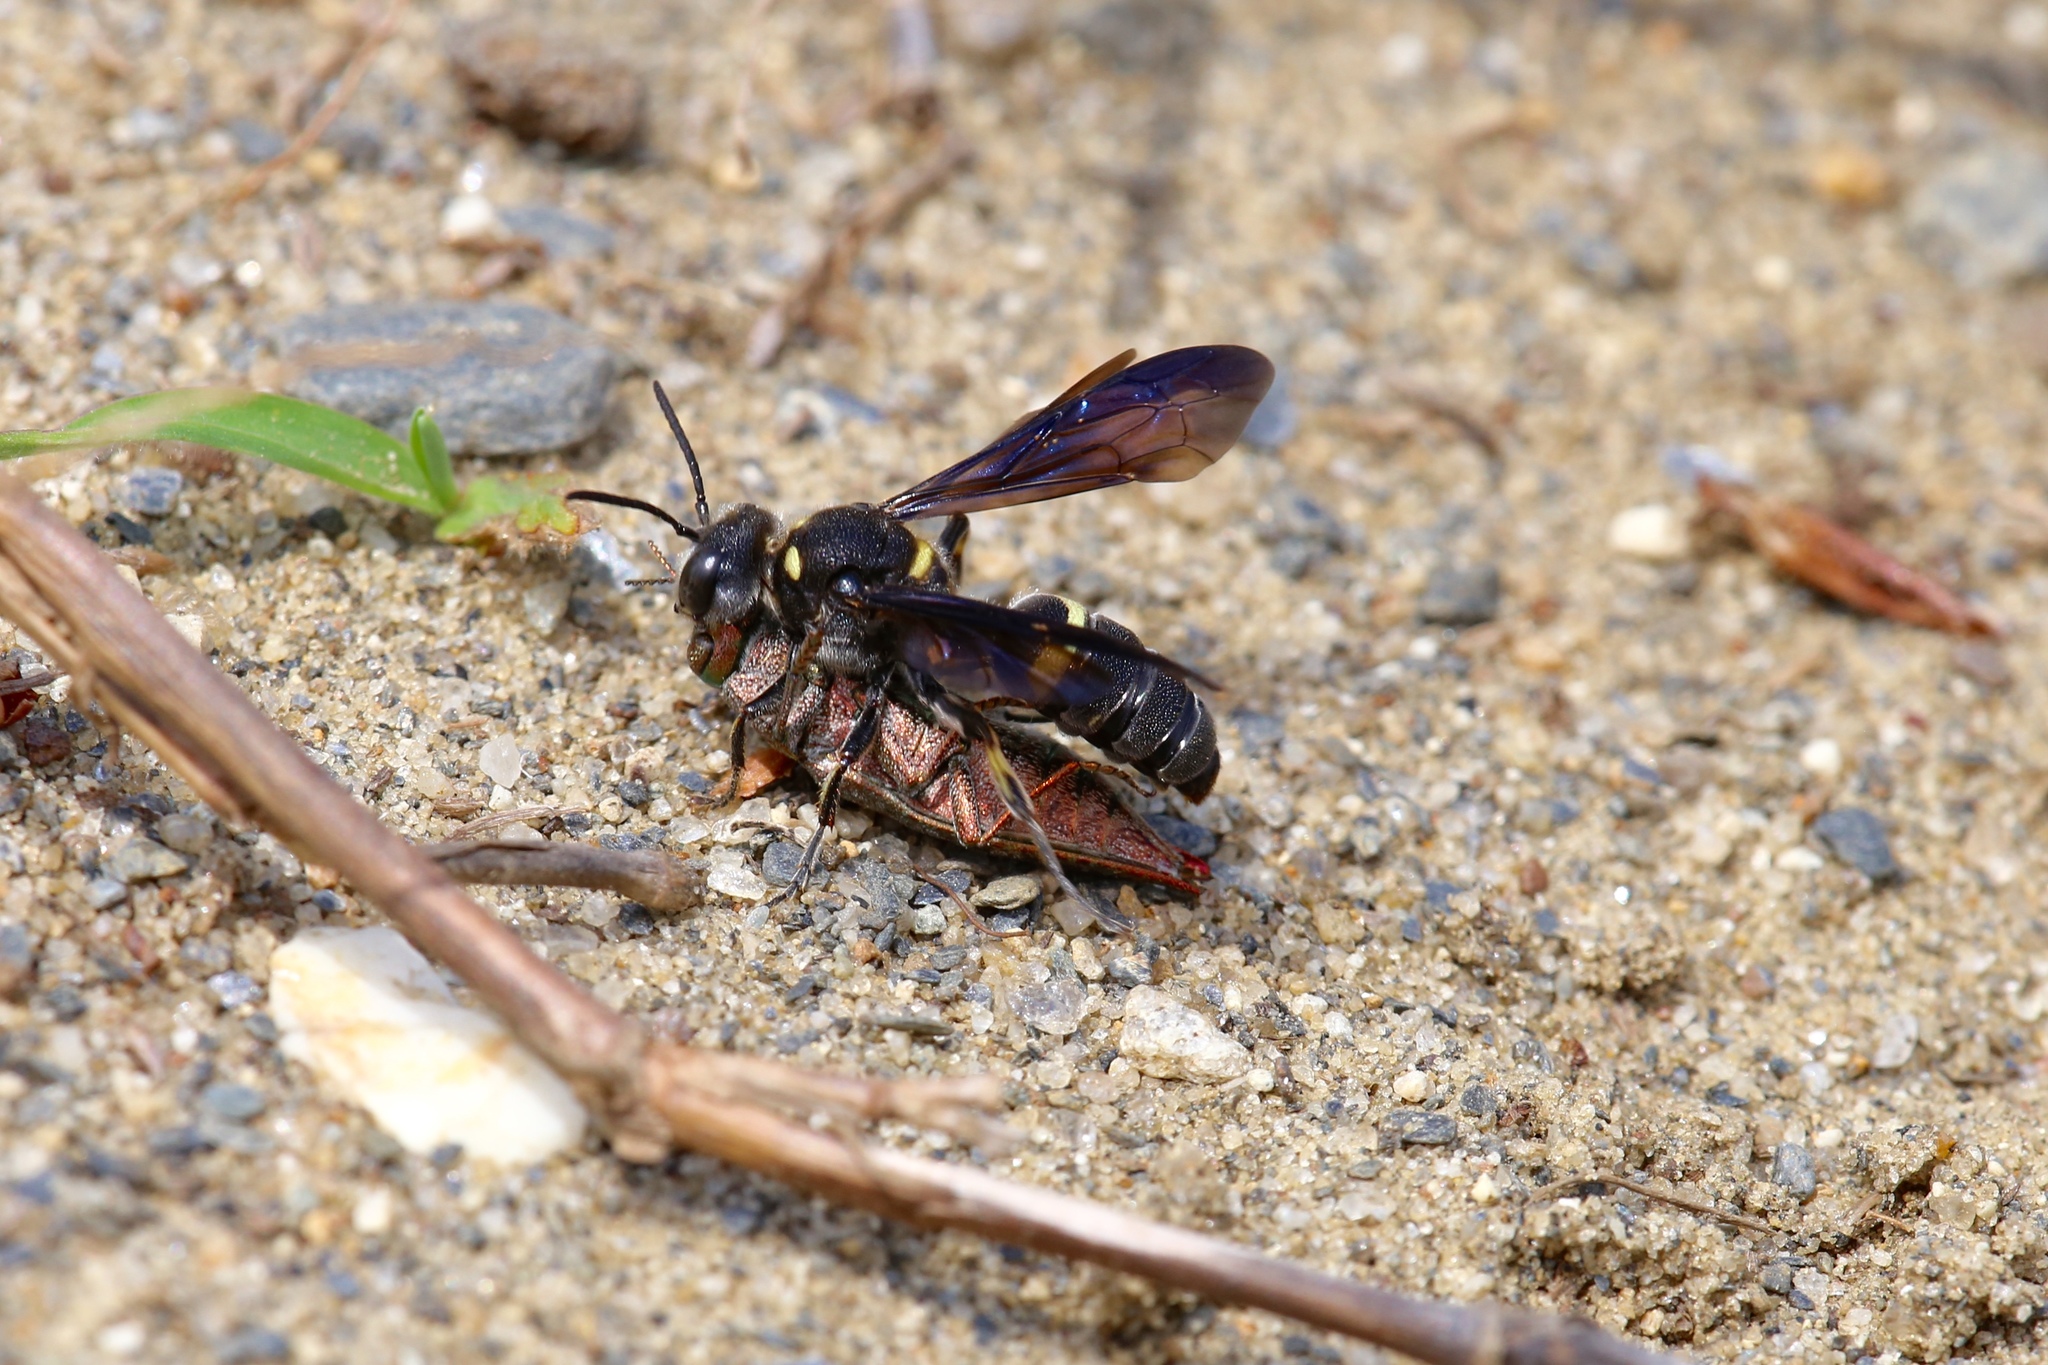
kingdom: Animalia
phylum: Arthropoda
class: Insecta
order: Hymenoptera
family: Crabronidae
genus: Cerceris
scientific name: Cerceris fumipennis
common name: Smokey-winged beetle bandit wasp
